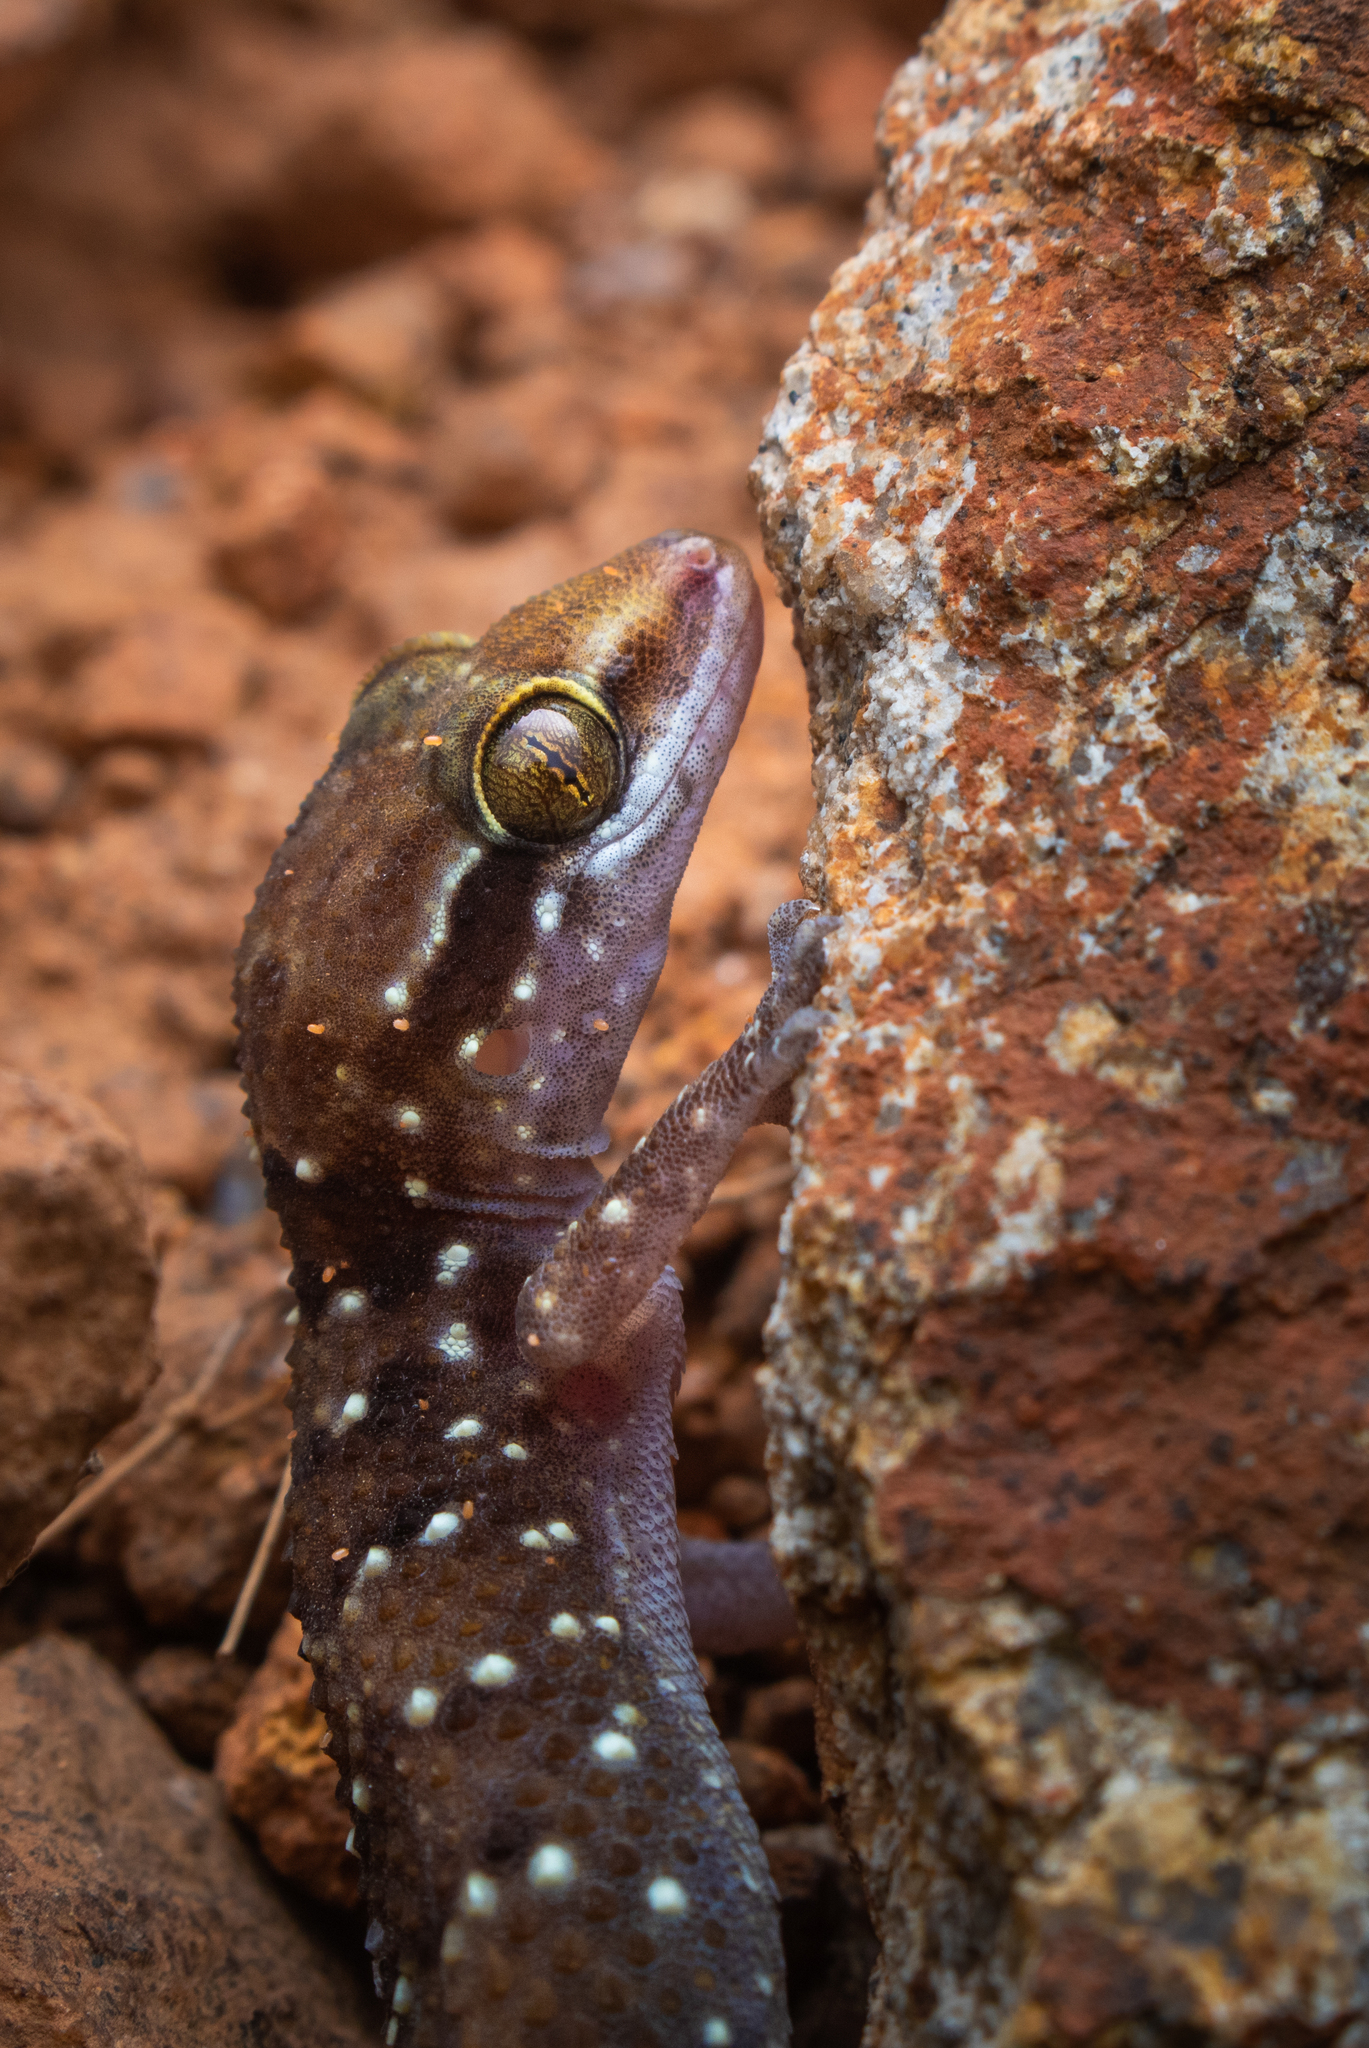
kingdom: Animalia
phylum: Chordata
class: Squamata
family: Gekkonidae
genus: Hemidactylus
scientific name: Hemidactylus triedrus
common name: Blotched house gecko
